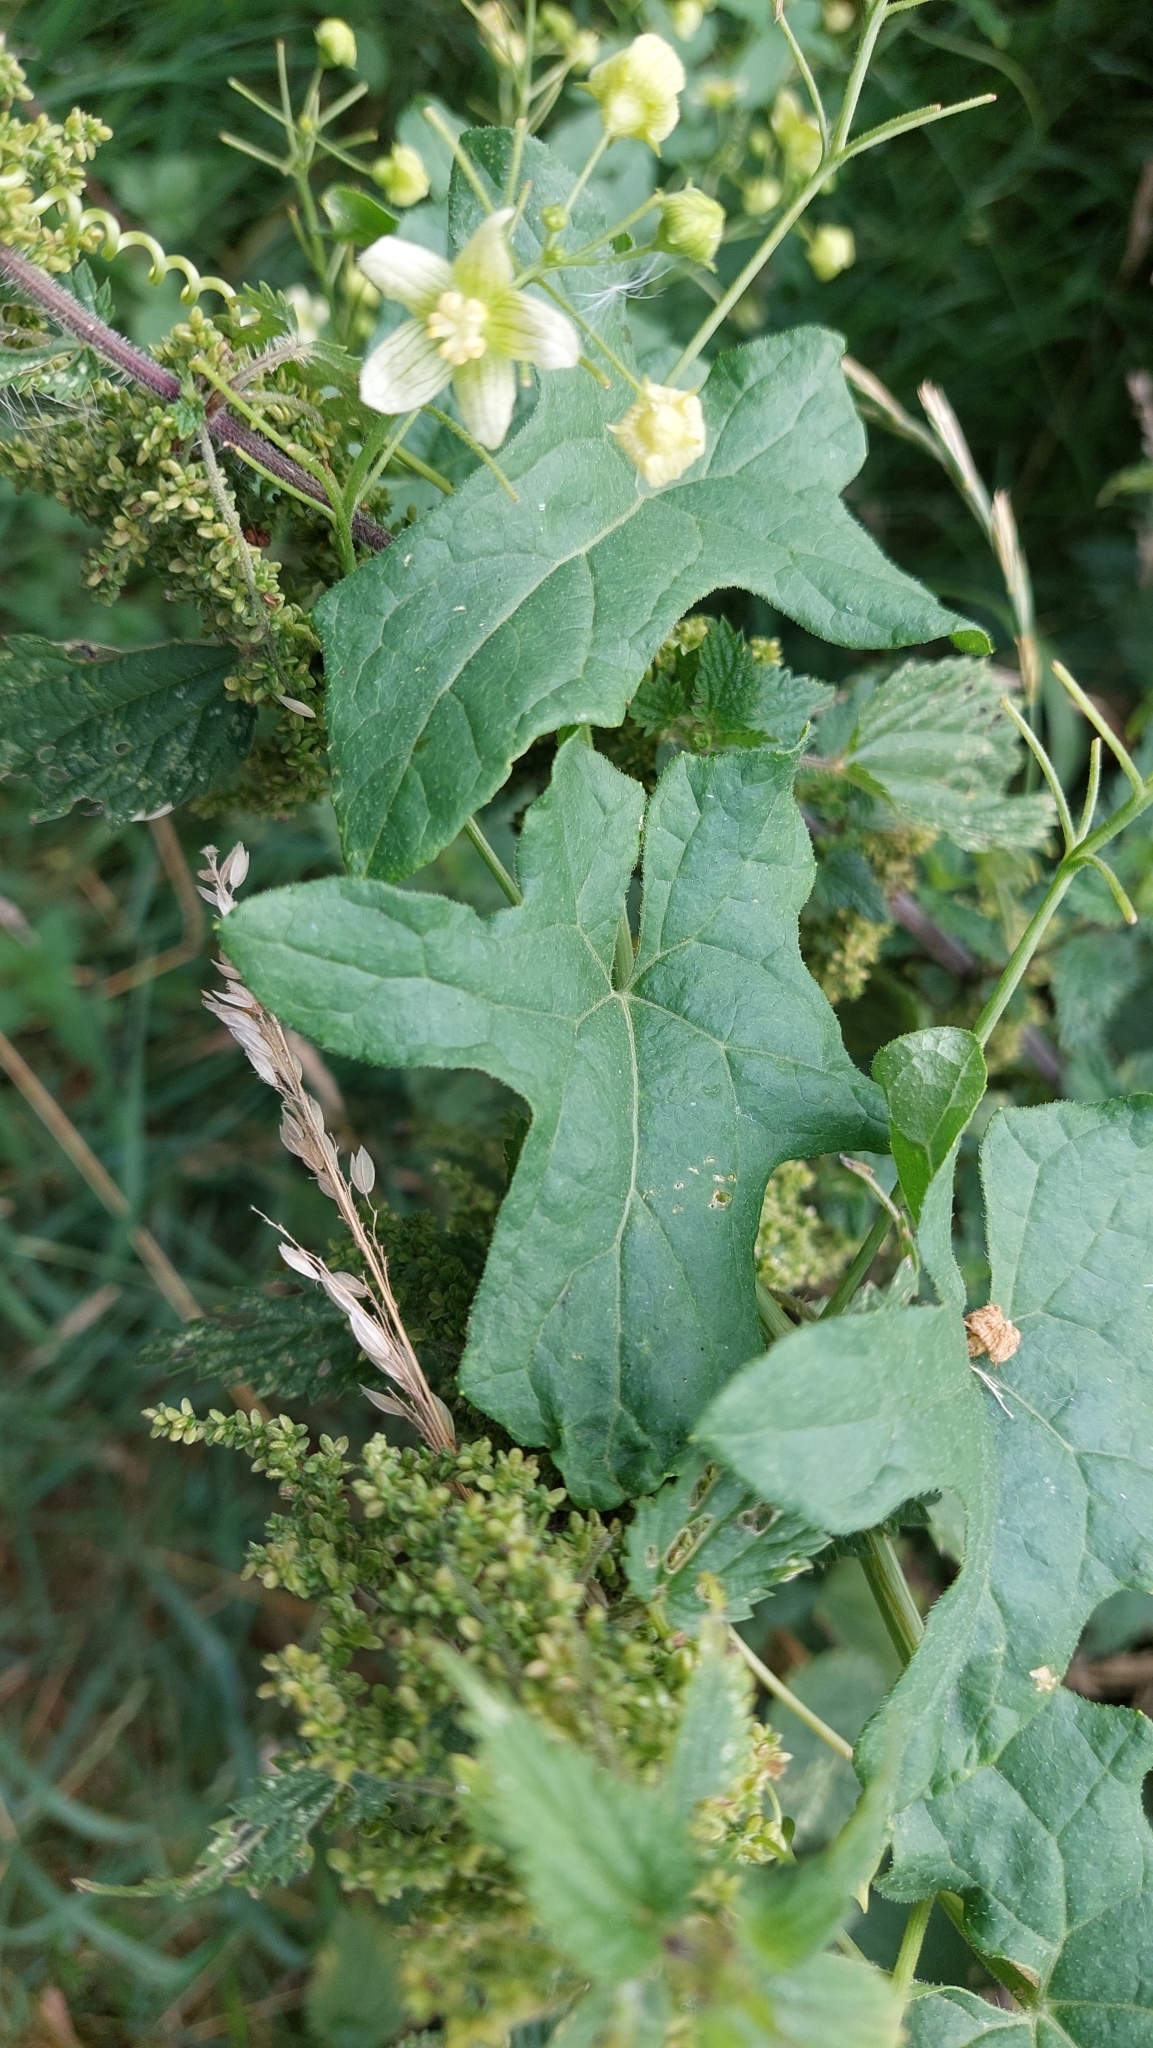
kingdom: Plantae
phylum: Tracheophyta
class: Magnoliopsida
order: Cucurbitales
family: Cucurbitaceae
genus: Bryonia
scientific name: Bryonia cretica
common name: Cretan bryony
